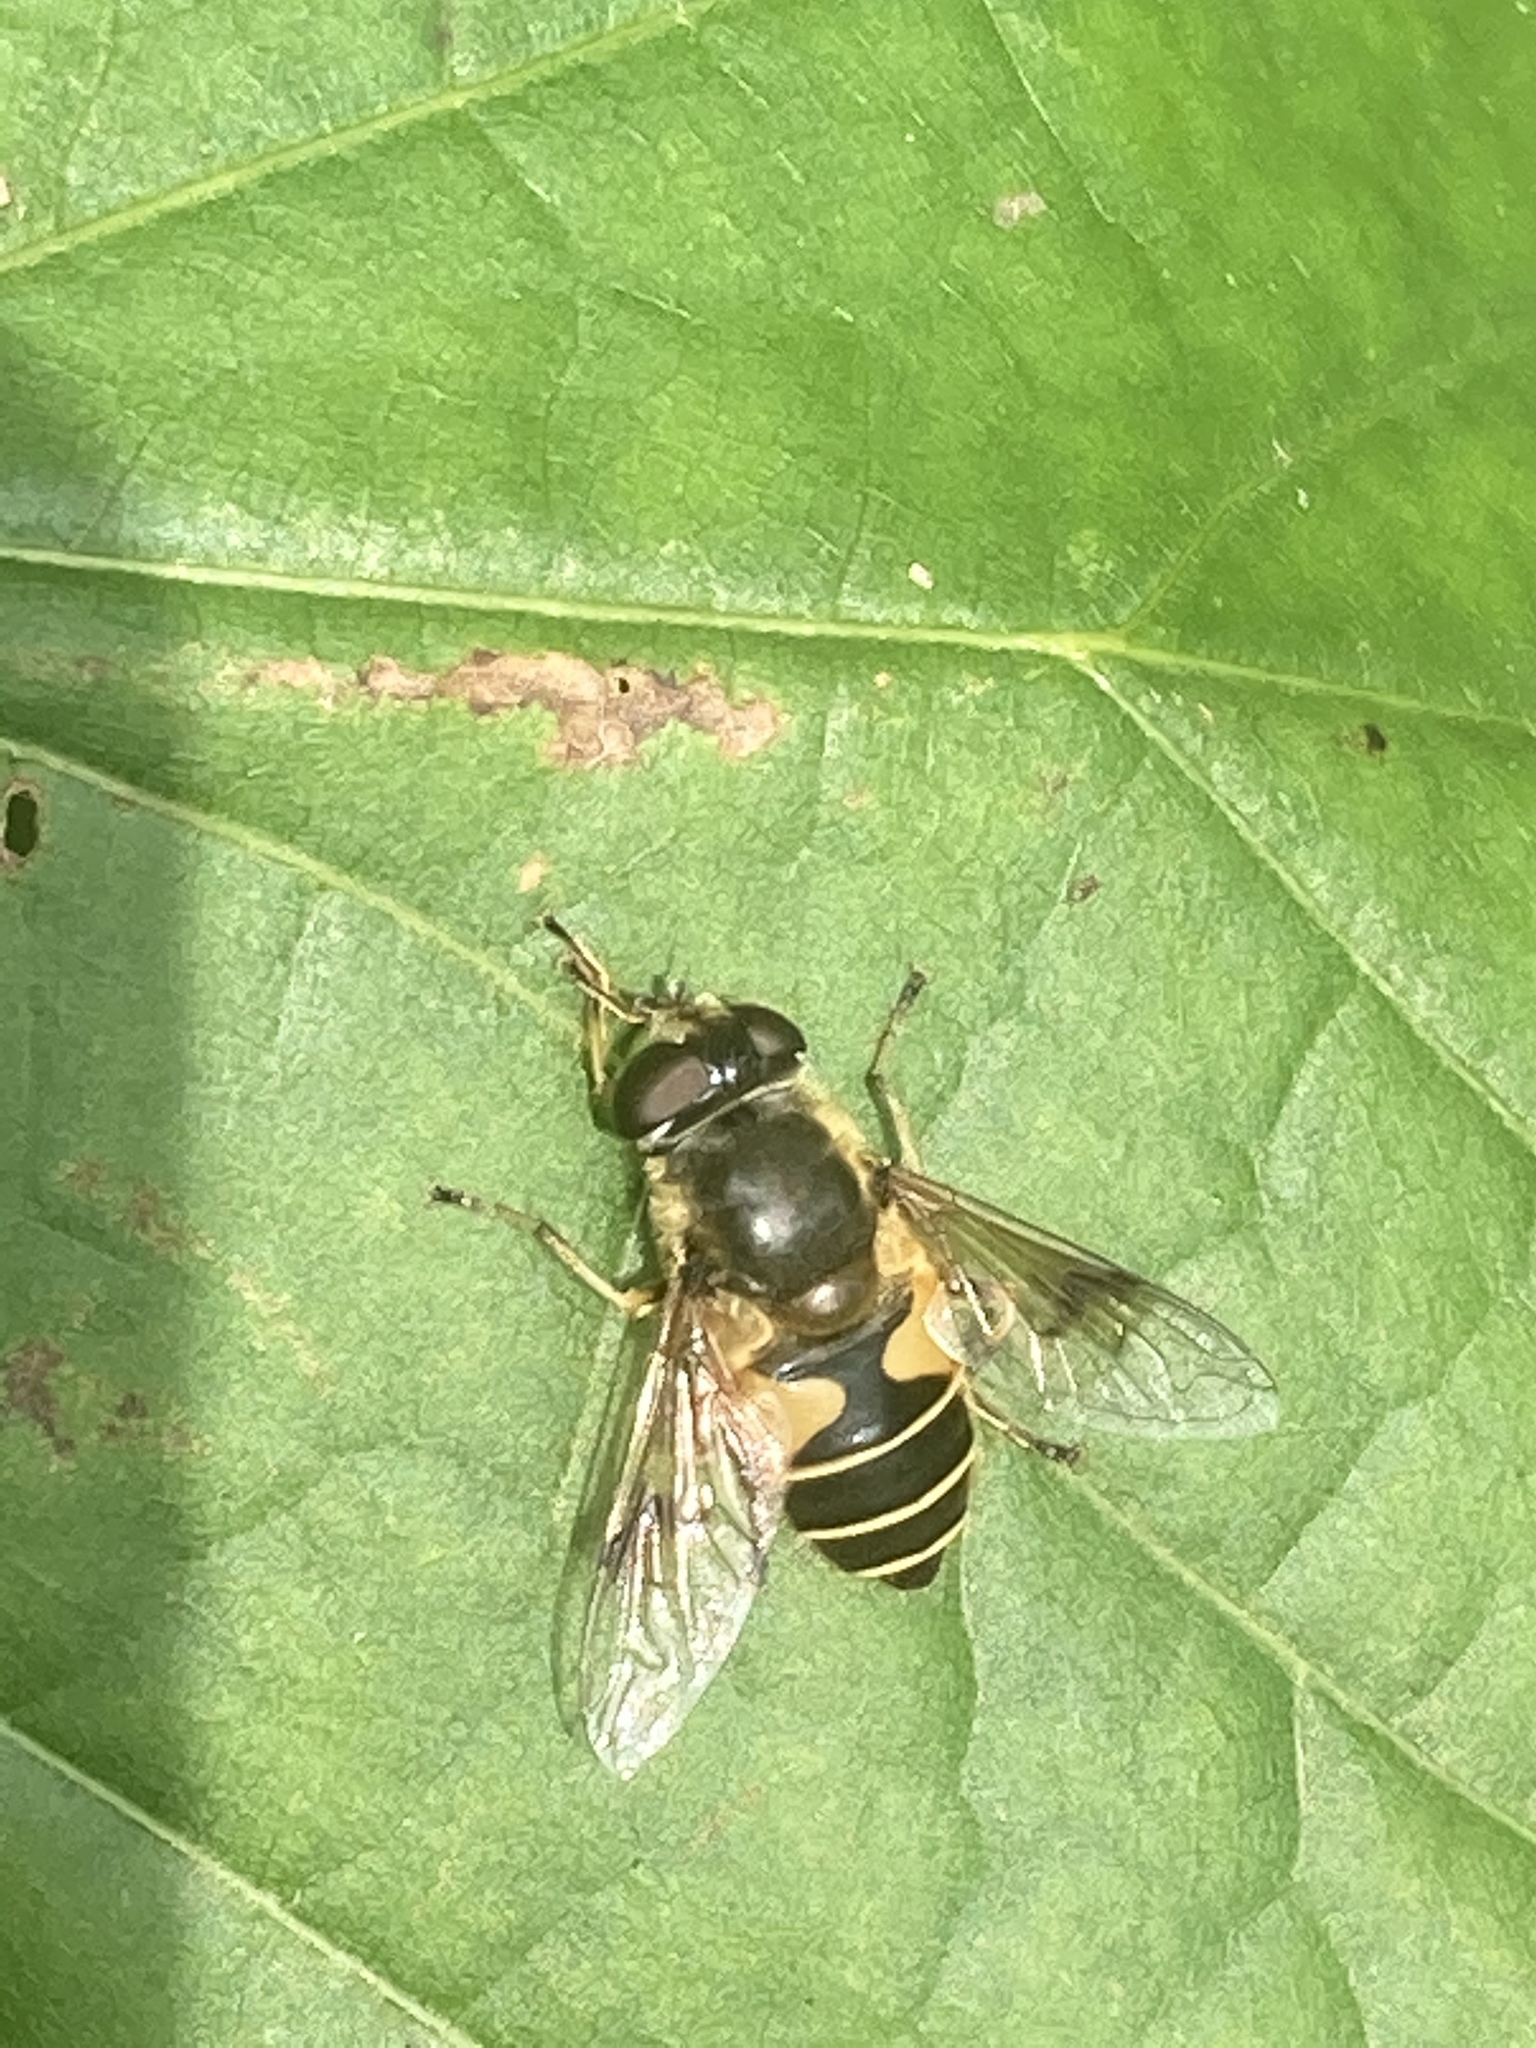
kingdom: Animalia
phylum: Arthropoda
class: Insecta
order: Diptera
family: Syrphidae
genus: Cheilosia
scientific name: Cheilosia morio
